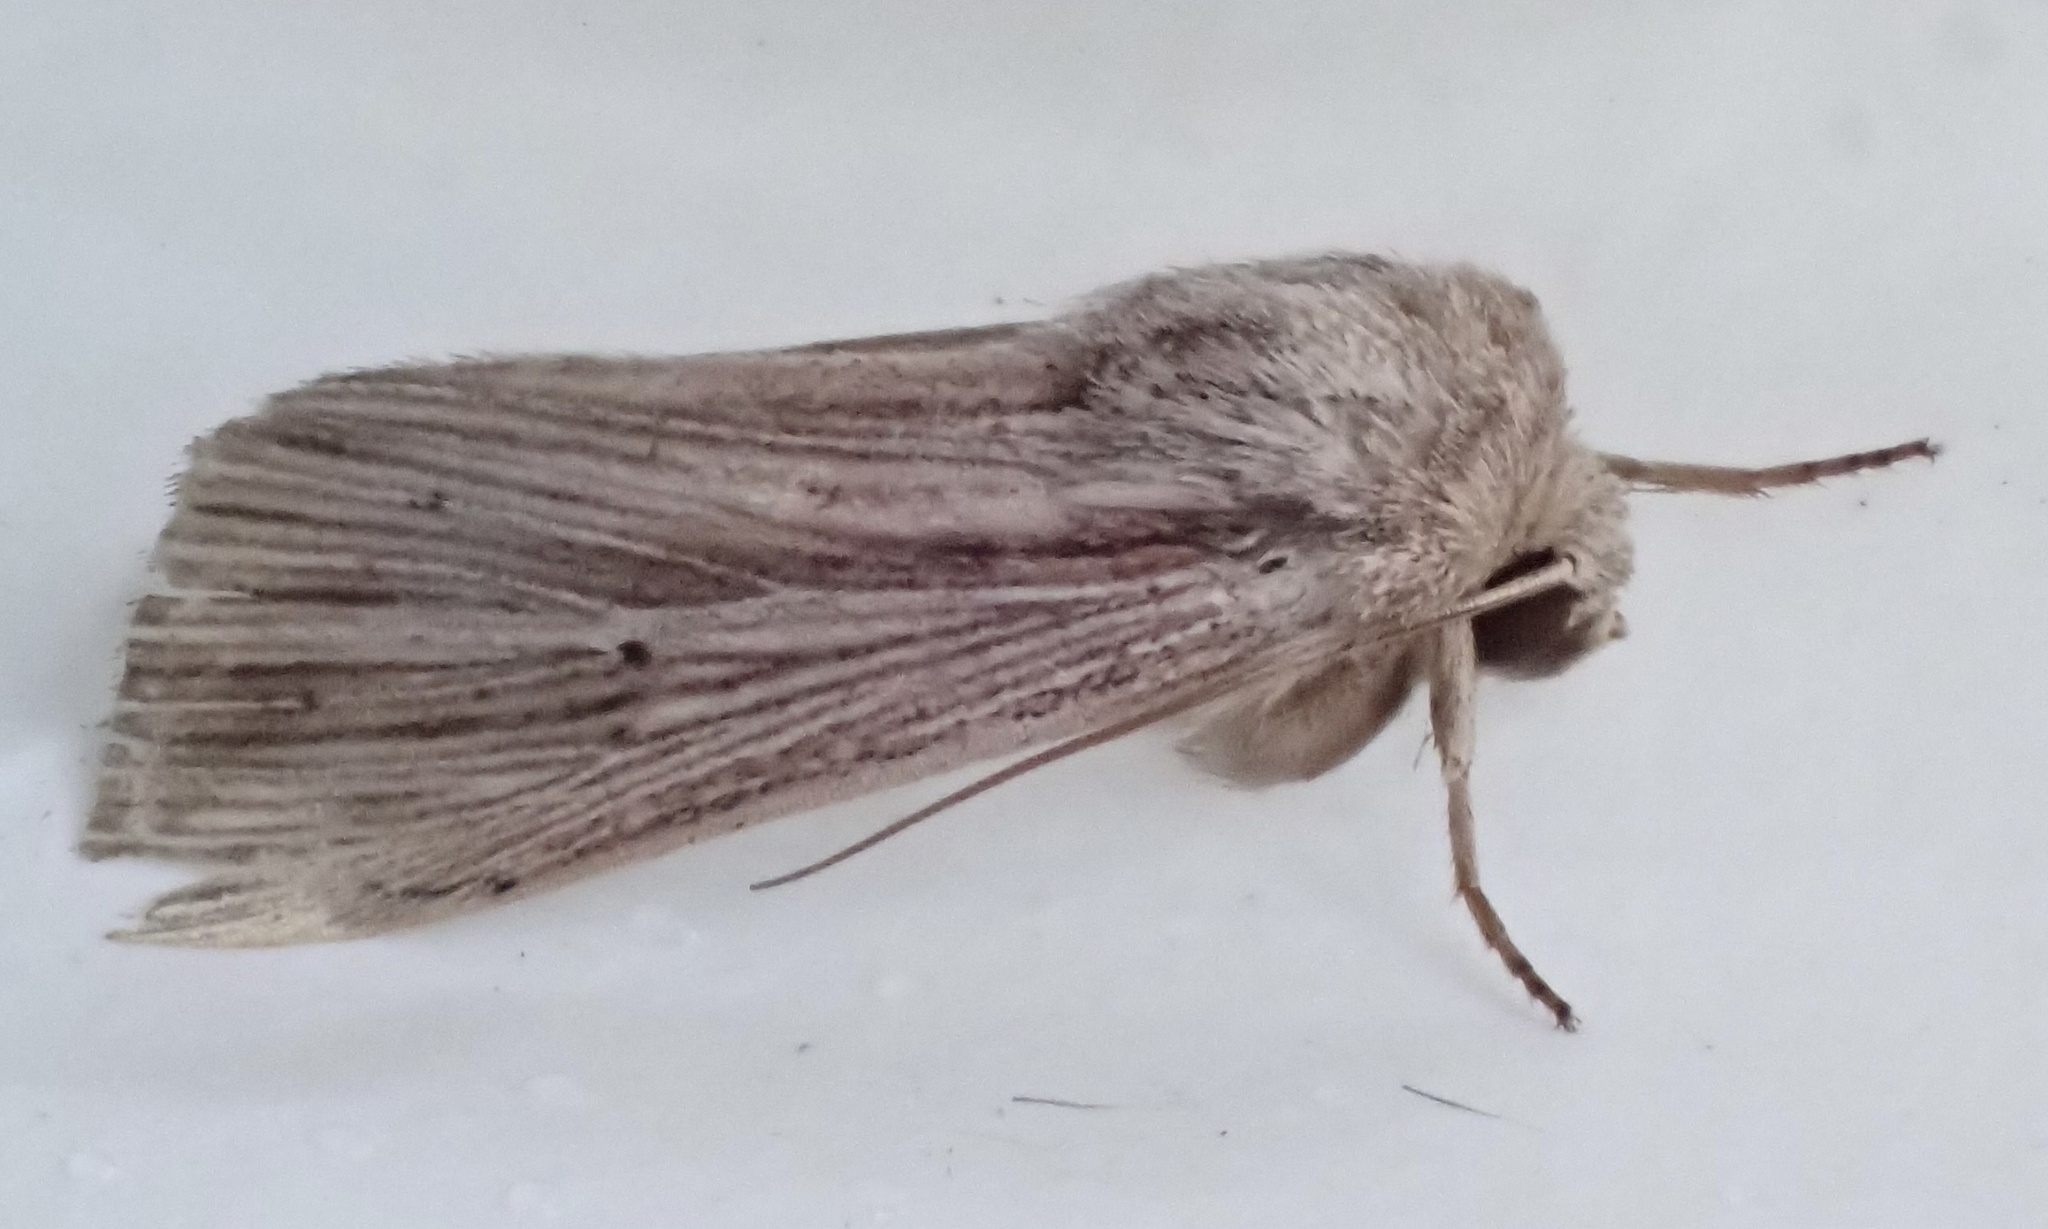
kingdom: Animalia
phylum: Arthropoda
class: Insecta
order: Lepidoptera
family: Noctuidae
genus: Leucania
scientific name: Leucania rhodopsara
